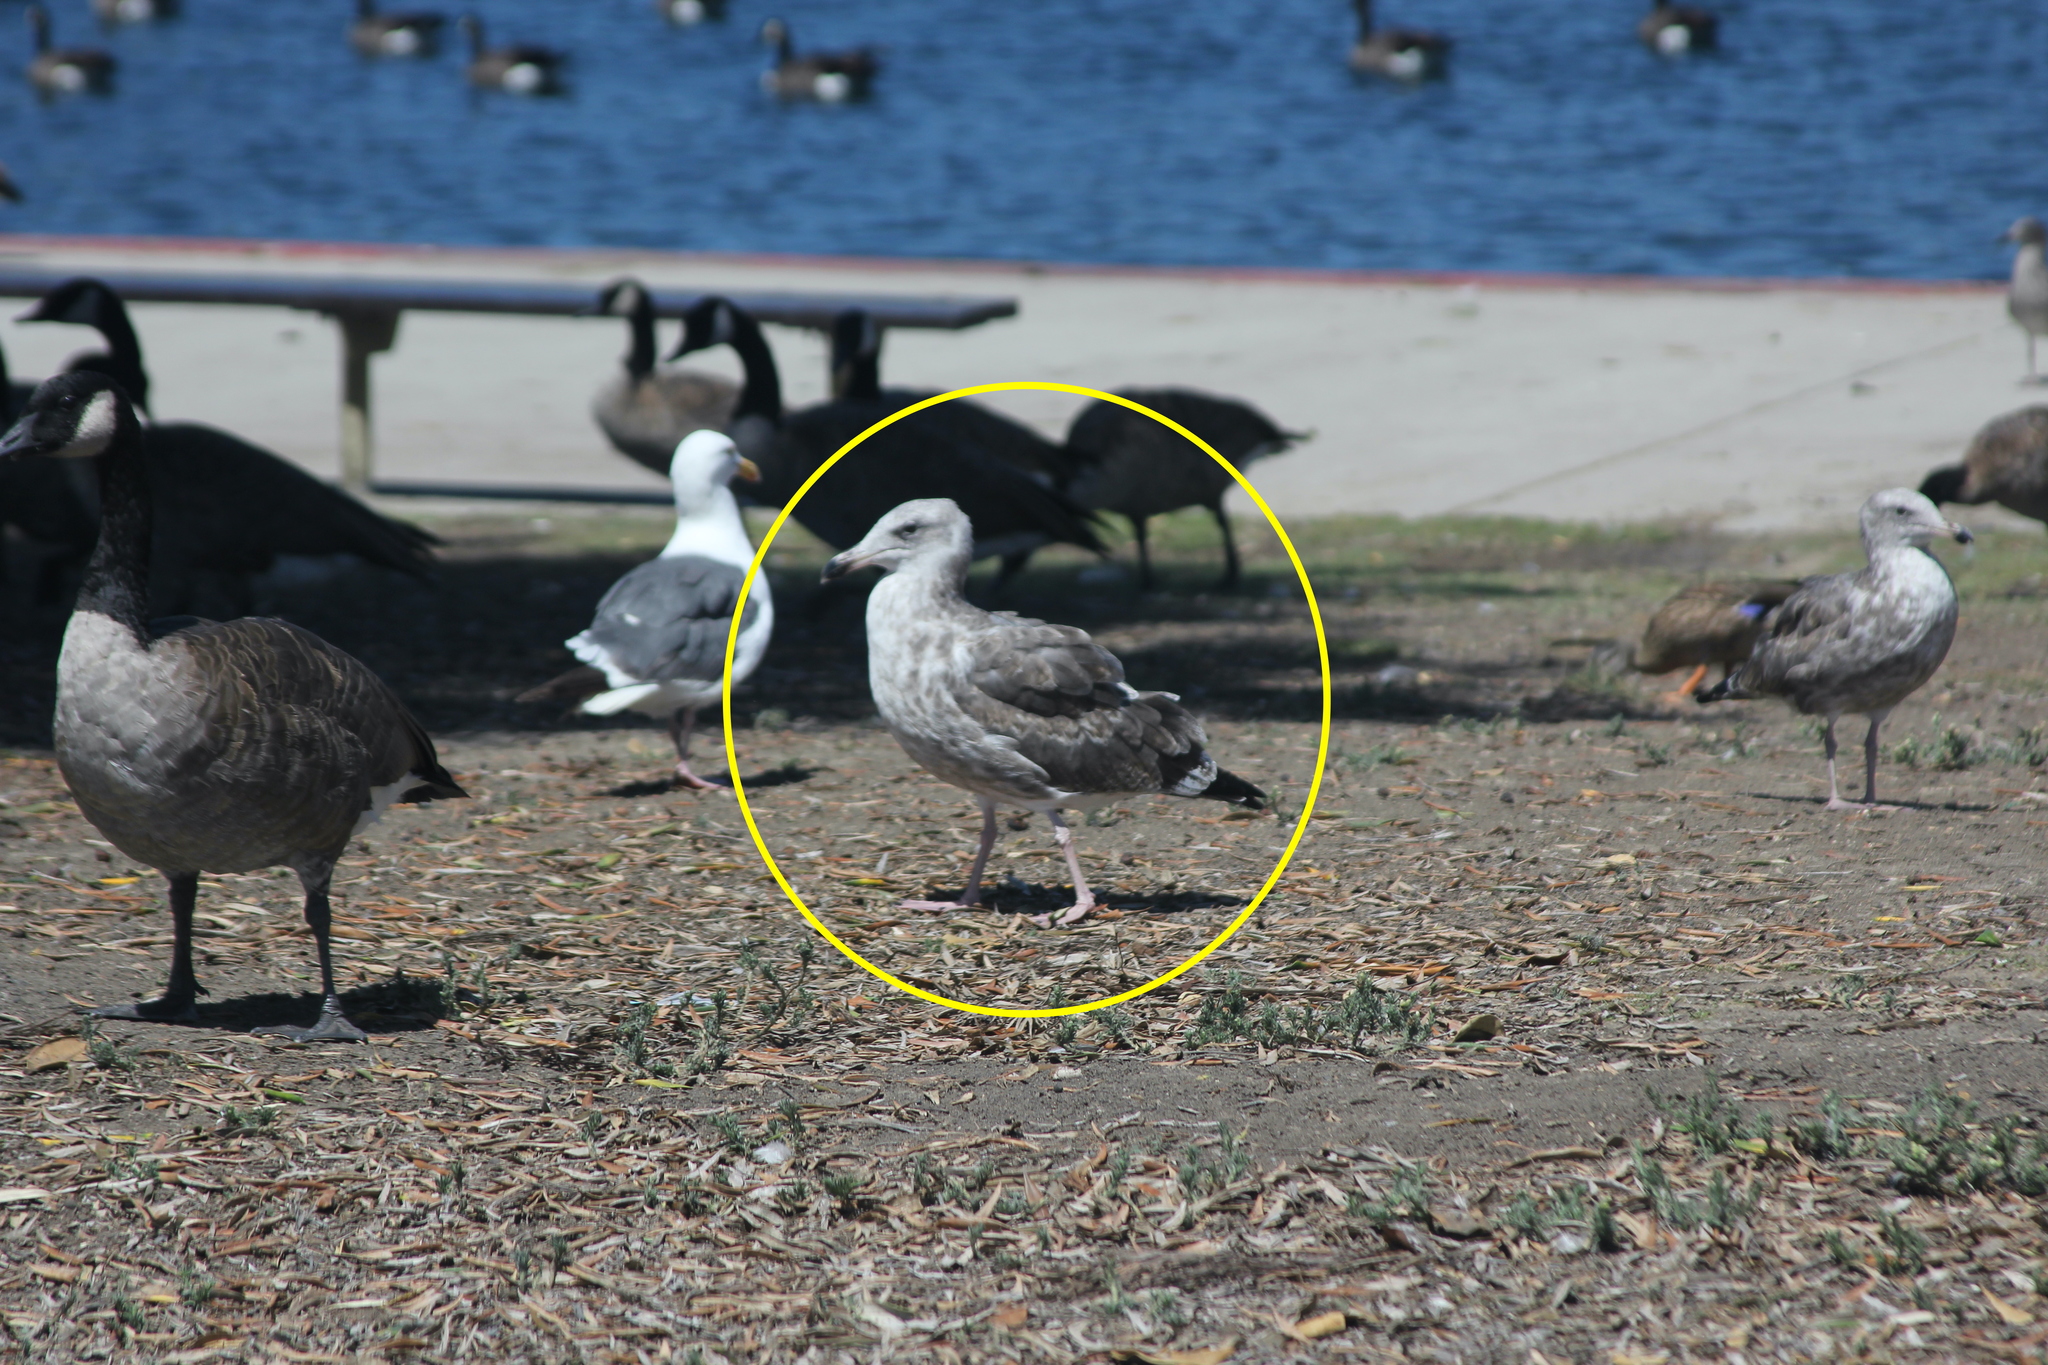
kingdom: Animalia
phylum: Chordata
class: Aves
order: Charadriiformes
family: Laridae
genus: Larus
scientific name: Larus occidentalis
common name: Western gull
